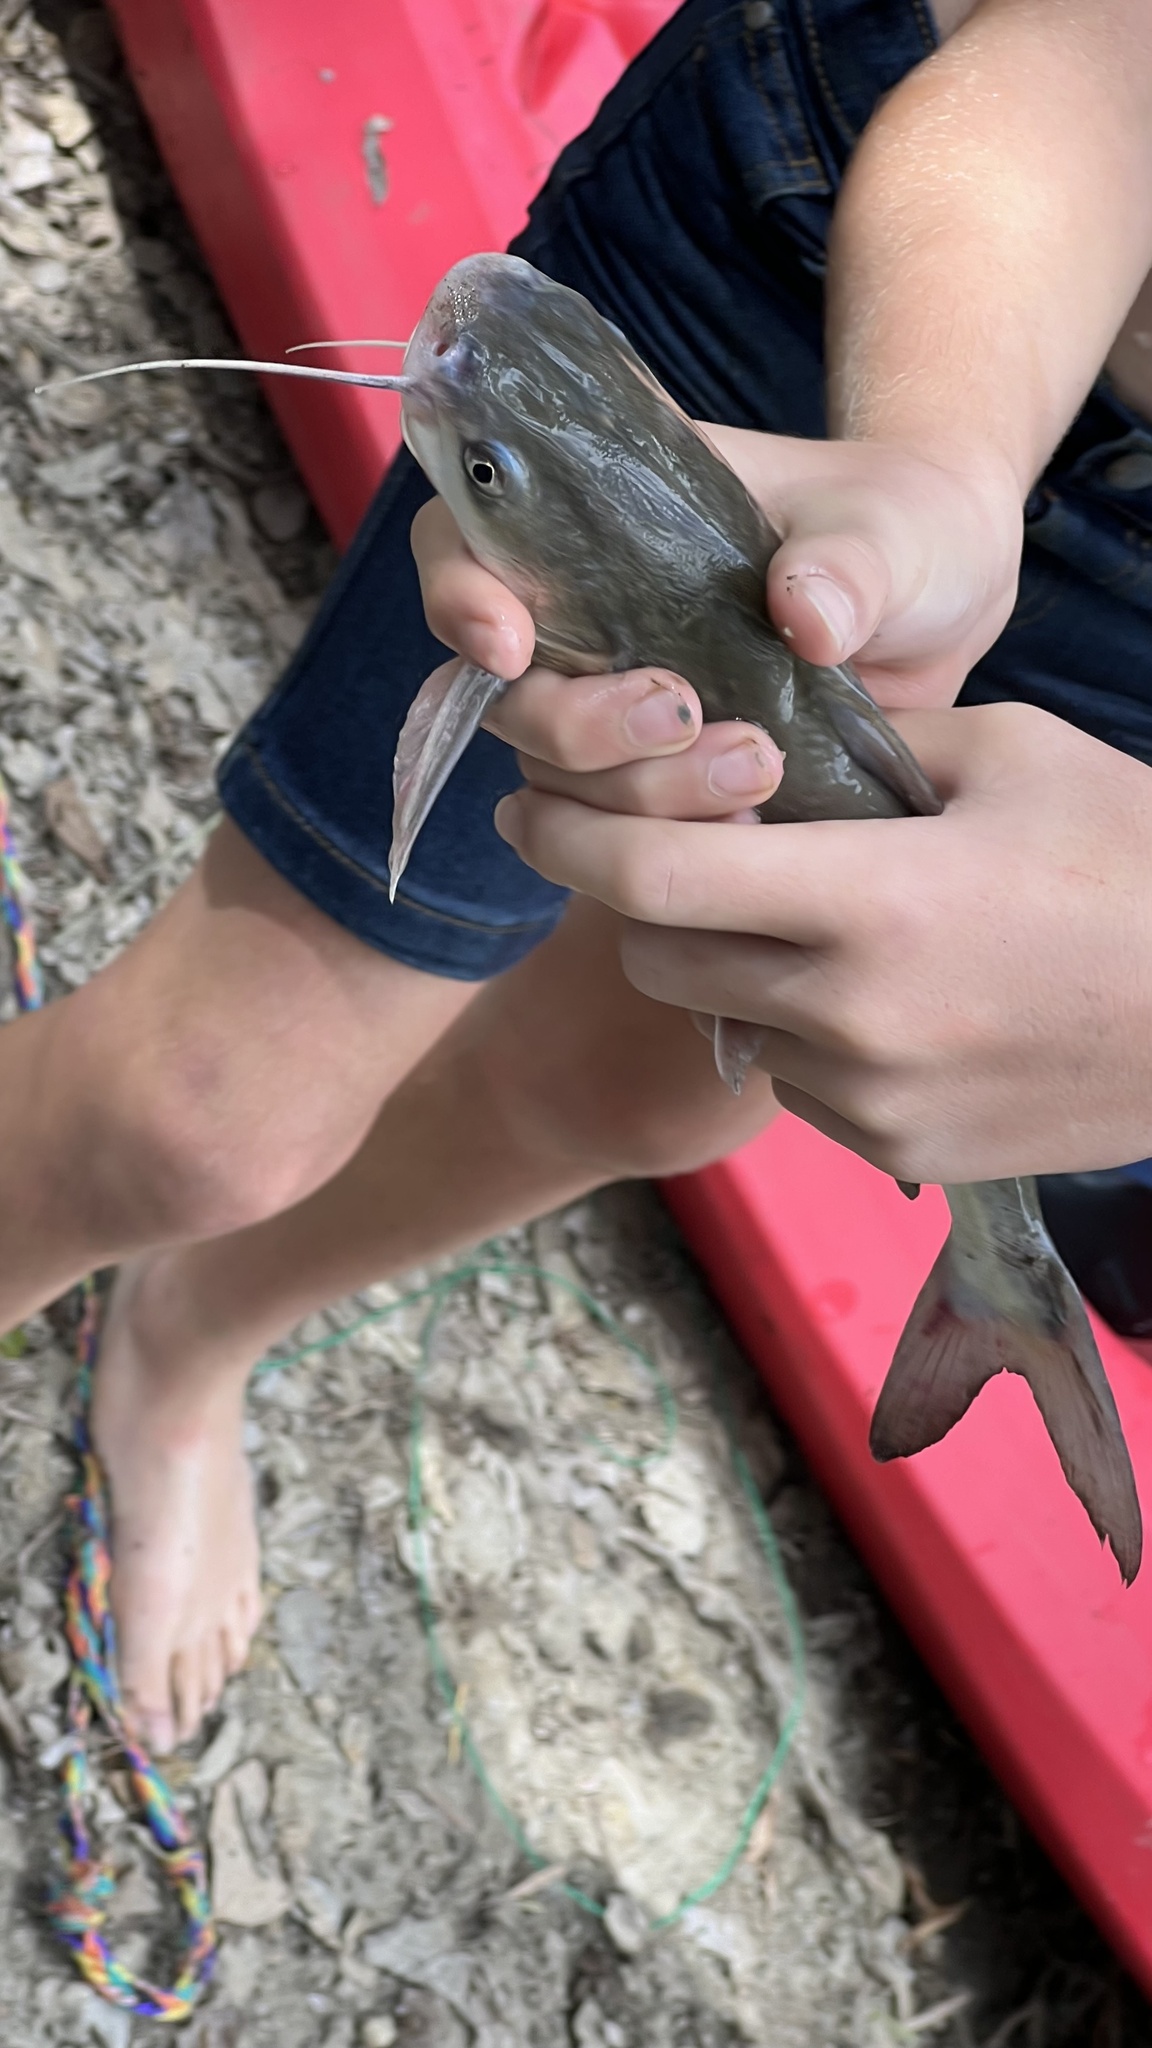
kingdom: Animalia
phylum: Chordata
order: Siluriformes
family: Ariidae
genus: Neoarius
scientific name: Neoarius graeffei
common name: Blue salmon catfish
